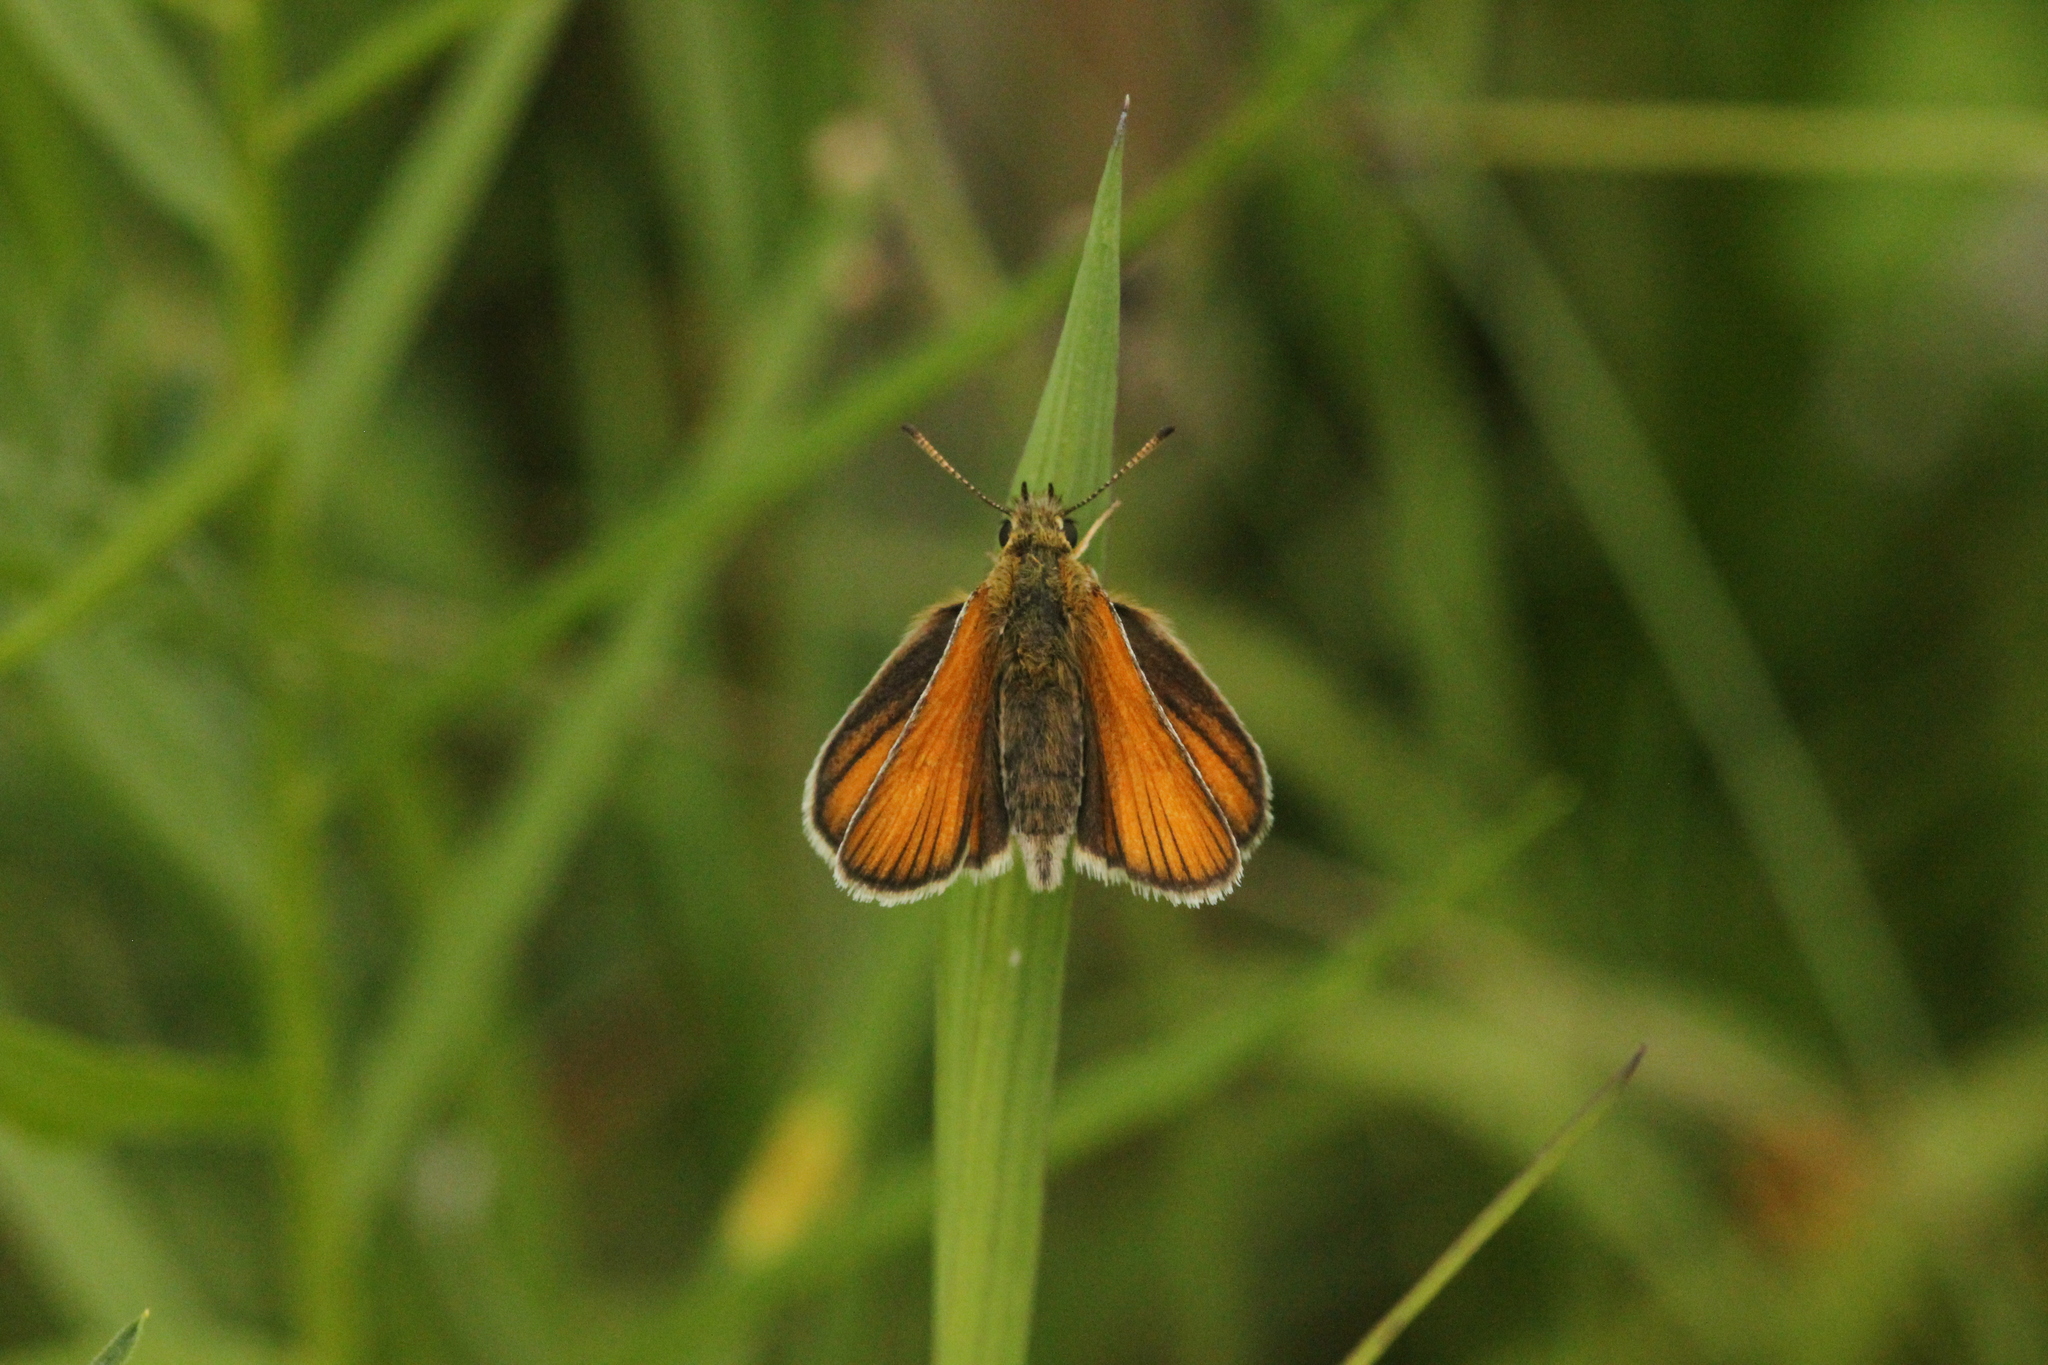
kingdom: Animalia
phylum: Arthropoda
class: Insecta
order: Lepidoptera
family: Hesperiidae
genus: Thymelicus
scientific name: Thymelicus lineola
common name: Essex skipper
